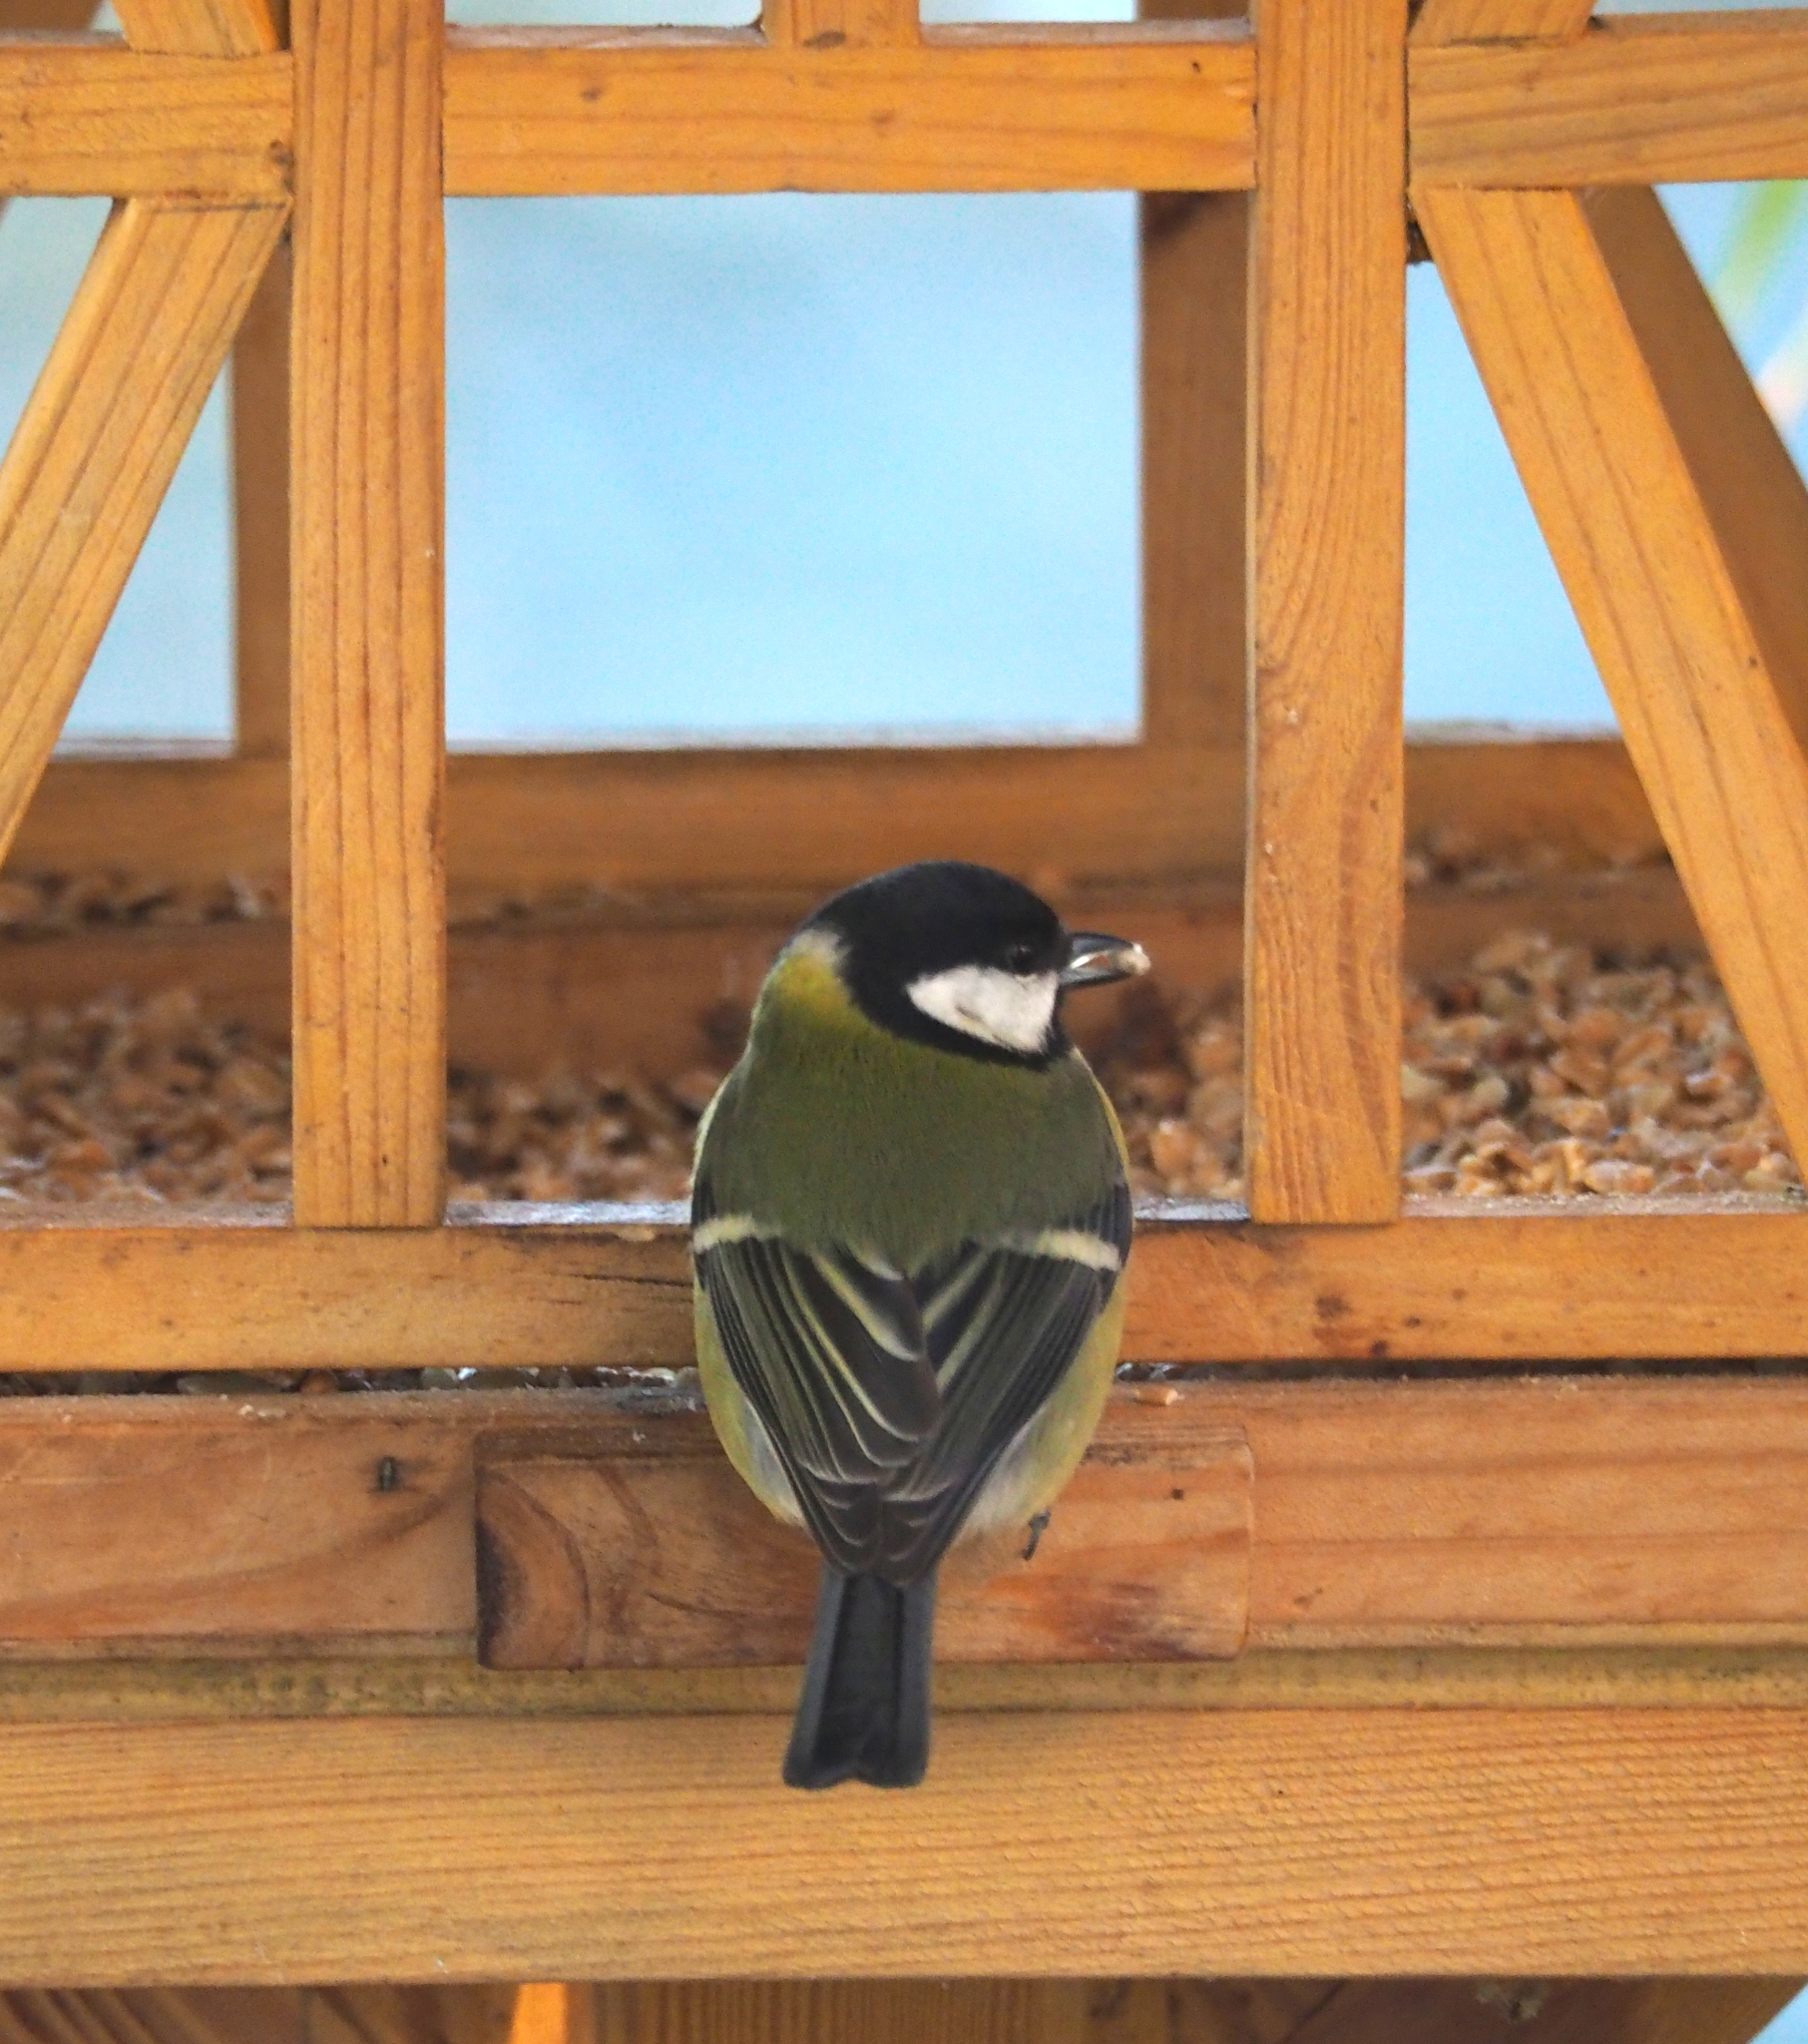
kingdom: Animalia
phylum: Chordata
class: Aves
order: Passeriformes
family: Paridae
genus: Parus
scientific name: Parus major
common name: Great tit
